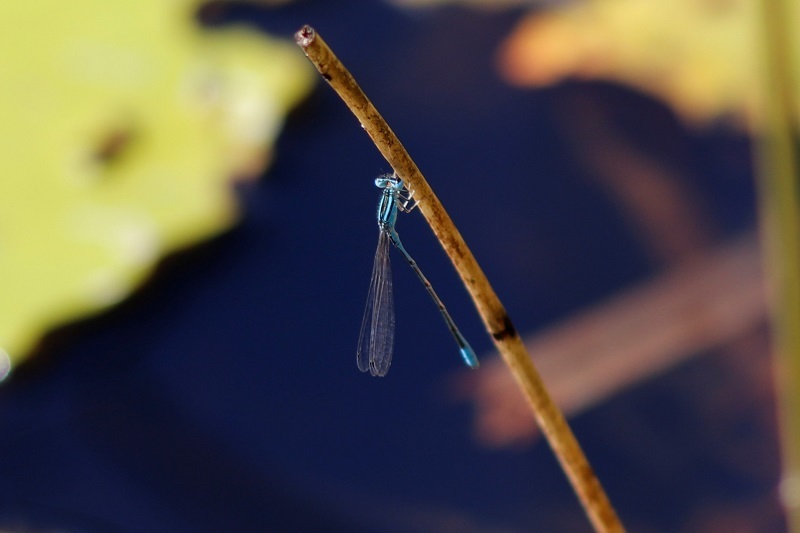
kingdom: Animalia
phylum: Arthropoda
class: Insecta
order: Odonata
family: Coenagrionidae
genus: Africallagma
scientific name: Africallagma glaucum
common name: Swamp bluet
